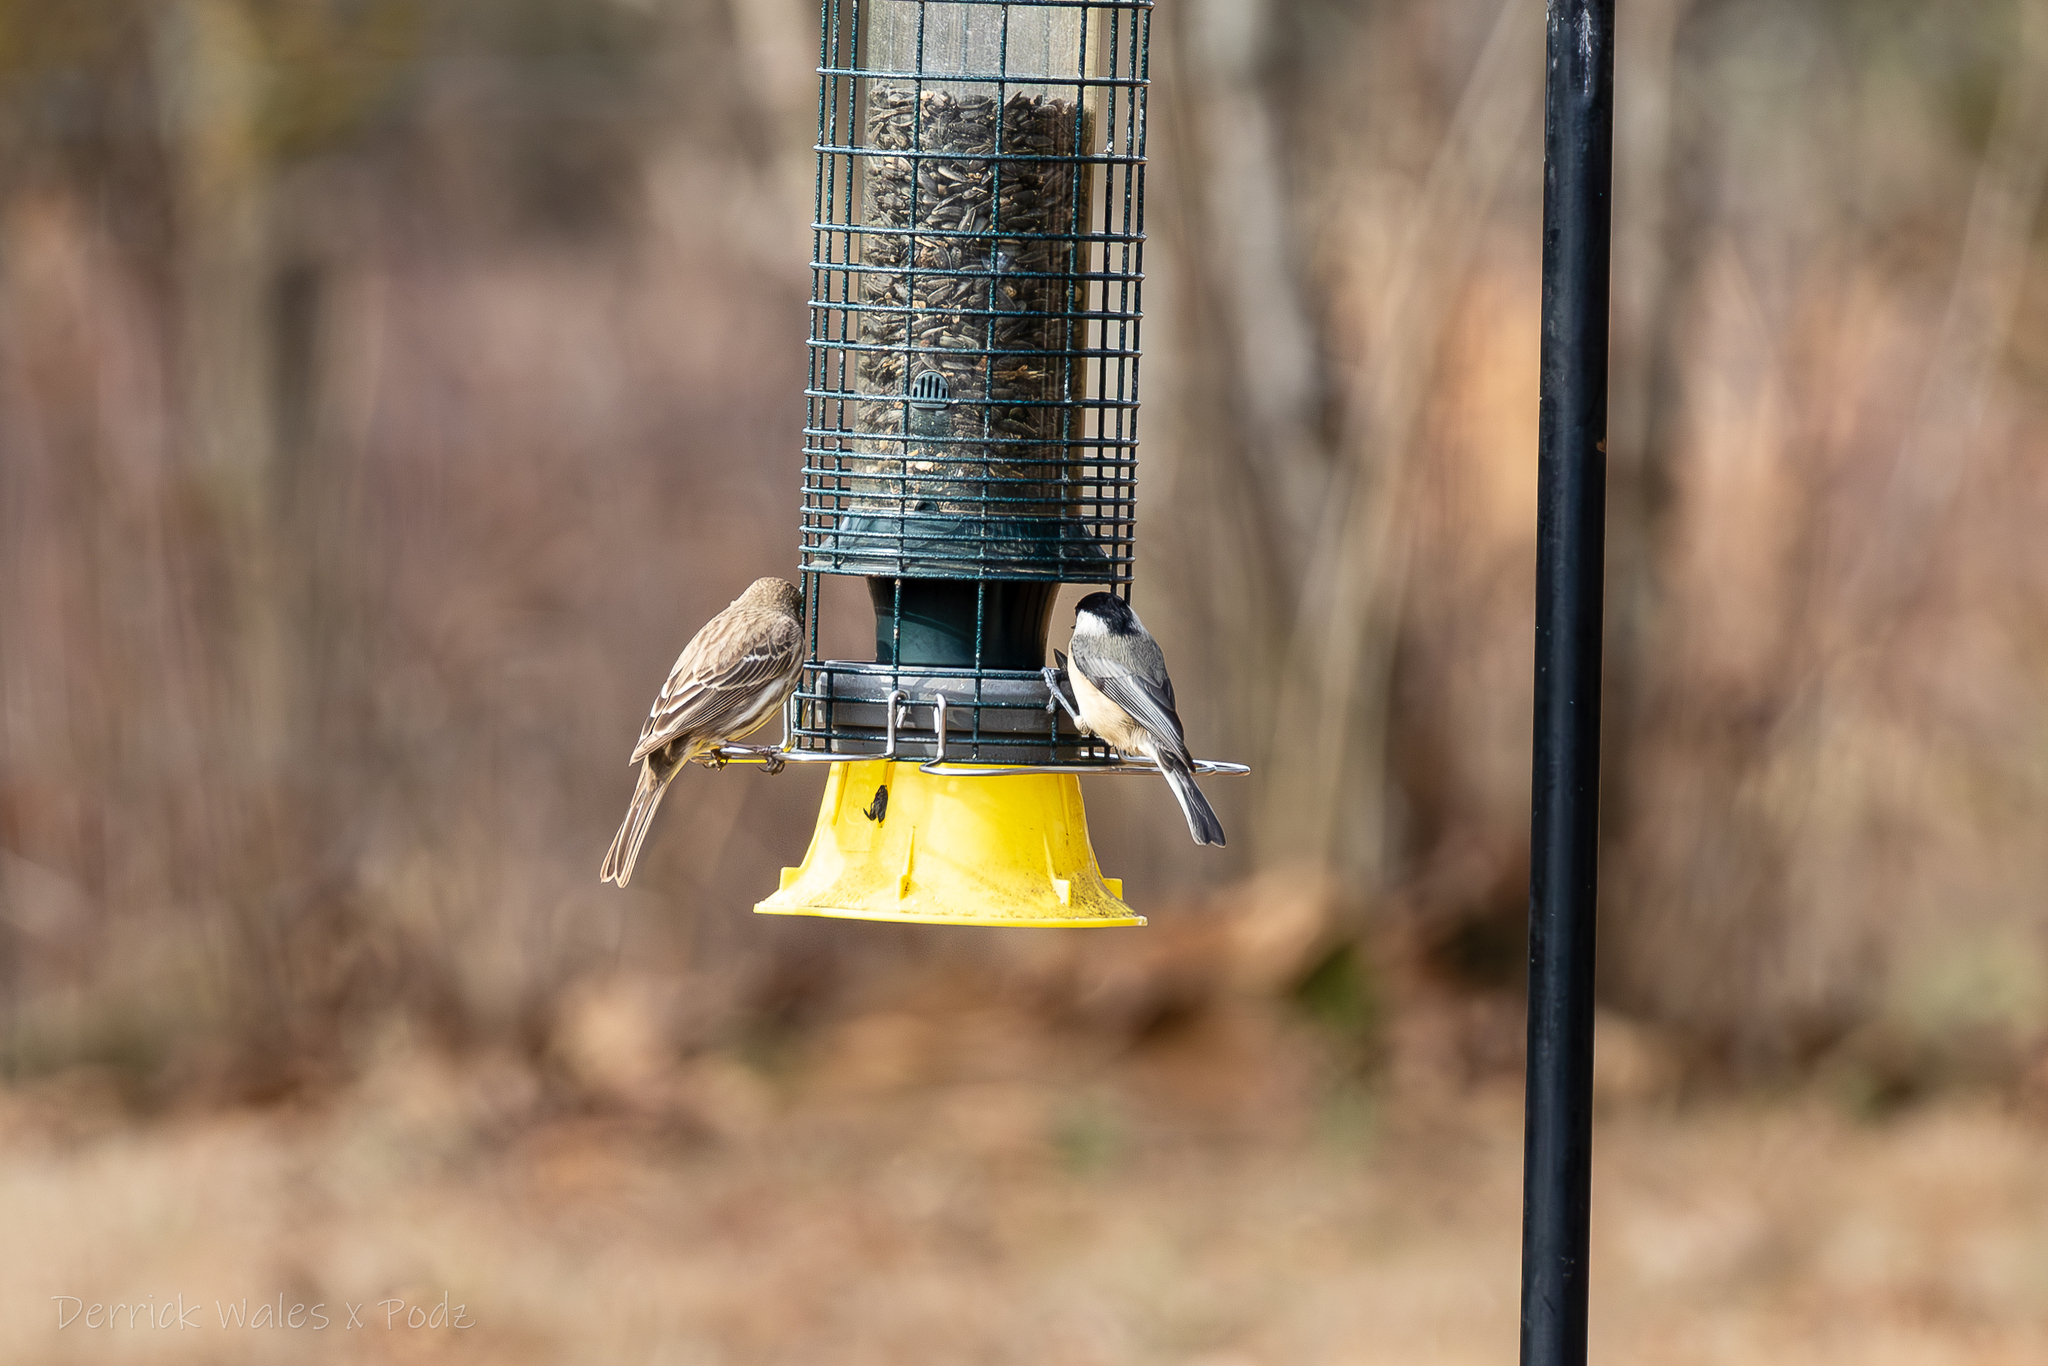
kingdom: Animalia
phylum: Chordata
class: Aves
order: Passeriformes
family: Paridae
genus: Poecile
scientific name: Poecile carolinensis
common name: Carolina chickadee
